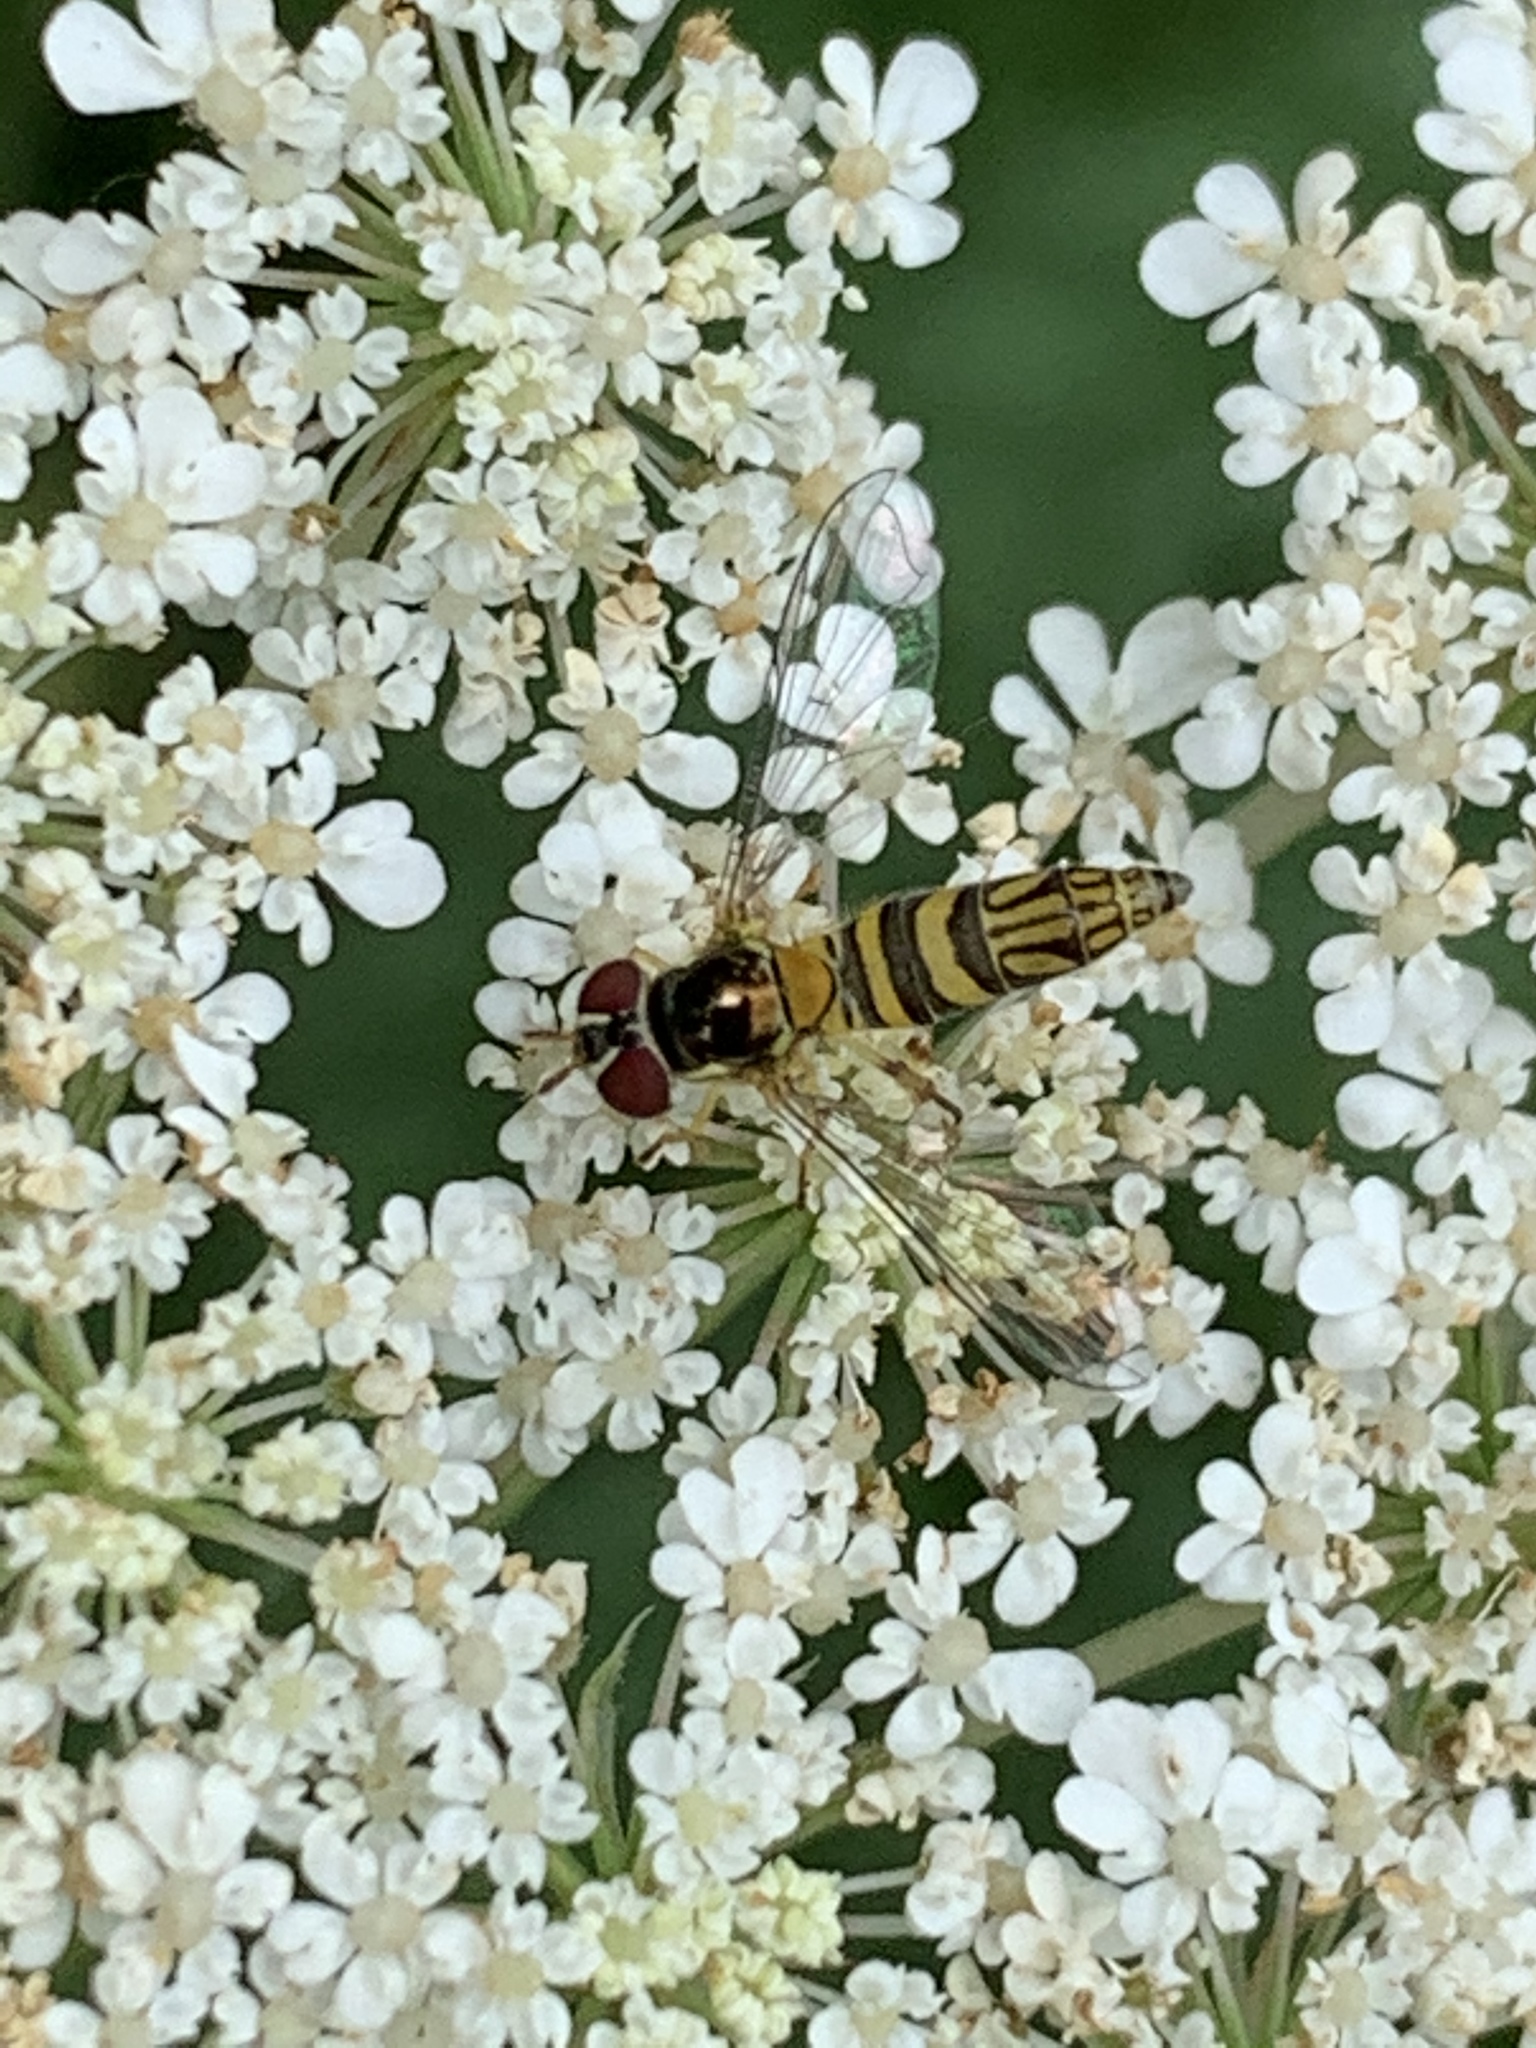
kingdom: Animalia
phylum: Arthropoda
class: Insecta
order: Diptera
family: Syrphidae
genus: Allograpta
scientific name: Allograpta obliqua
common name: Common oblique syrphid
